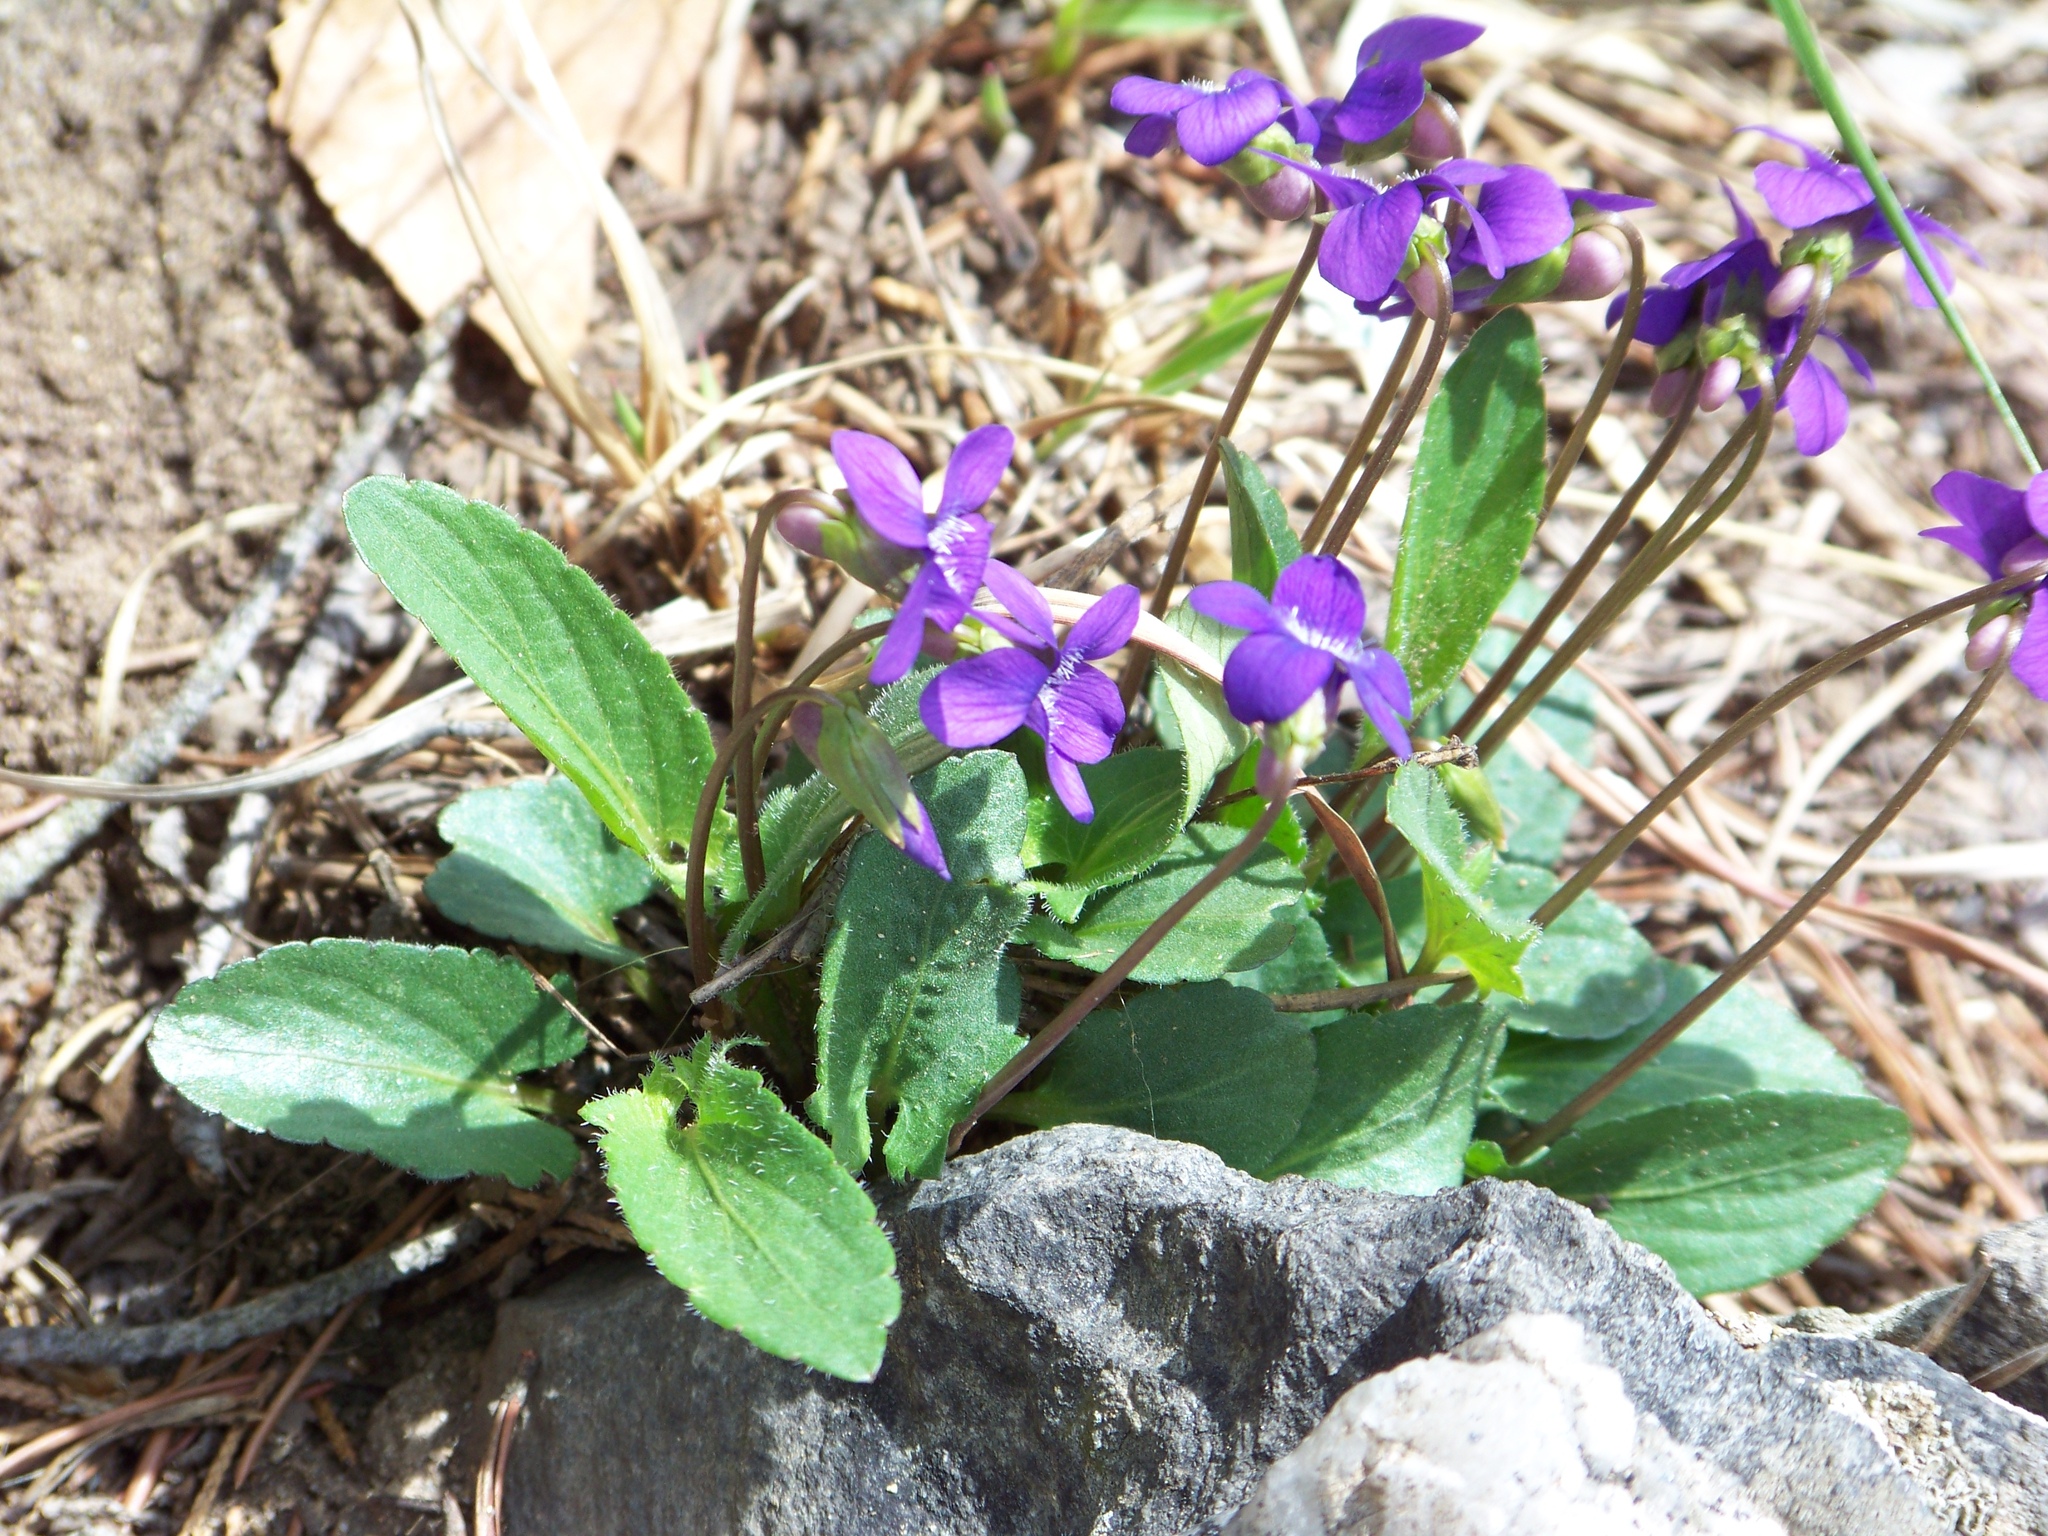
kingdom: Plantae
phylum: Tracheophyta
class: Magnoliopsida
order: Malpighiales
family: Violaceae
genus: Viola
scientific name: Viola sagittata
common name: Arrowhead violet
